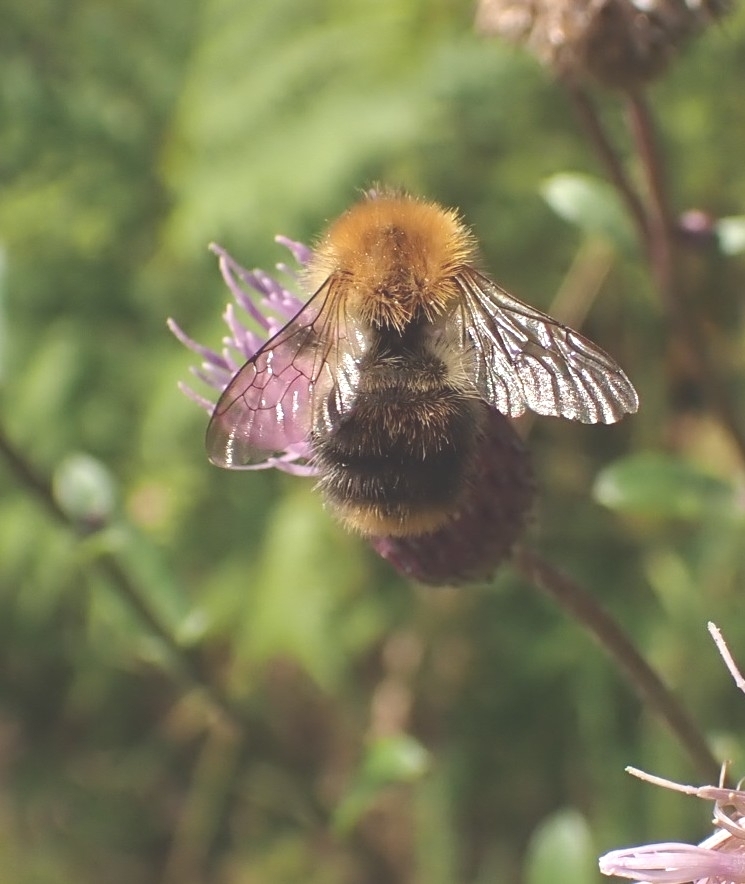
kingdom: Animalia
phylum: Arthropoda
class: Insecta
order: Hymenoptera
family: Apidae
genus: Bombus
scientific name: Bombus pascuorum
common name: Common carder bee
